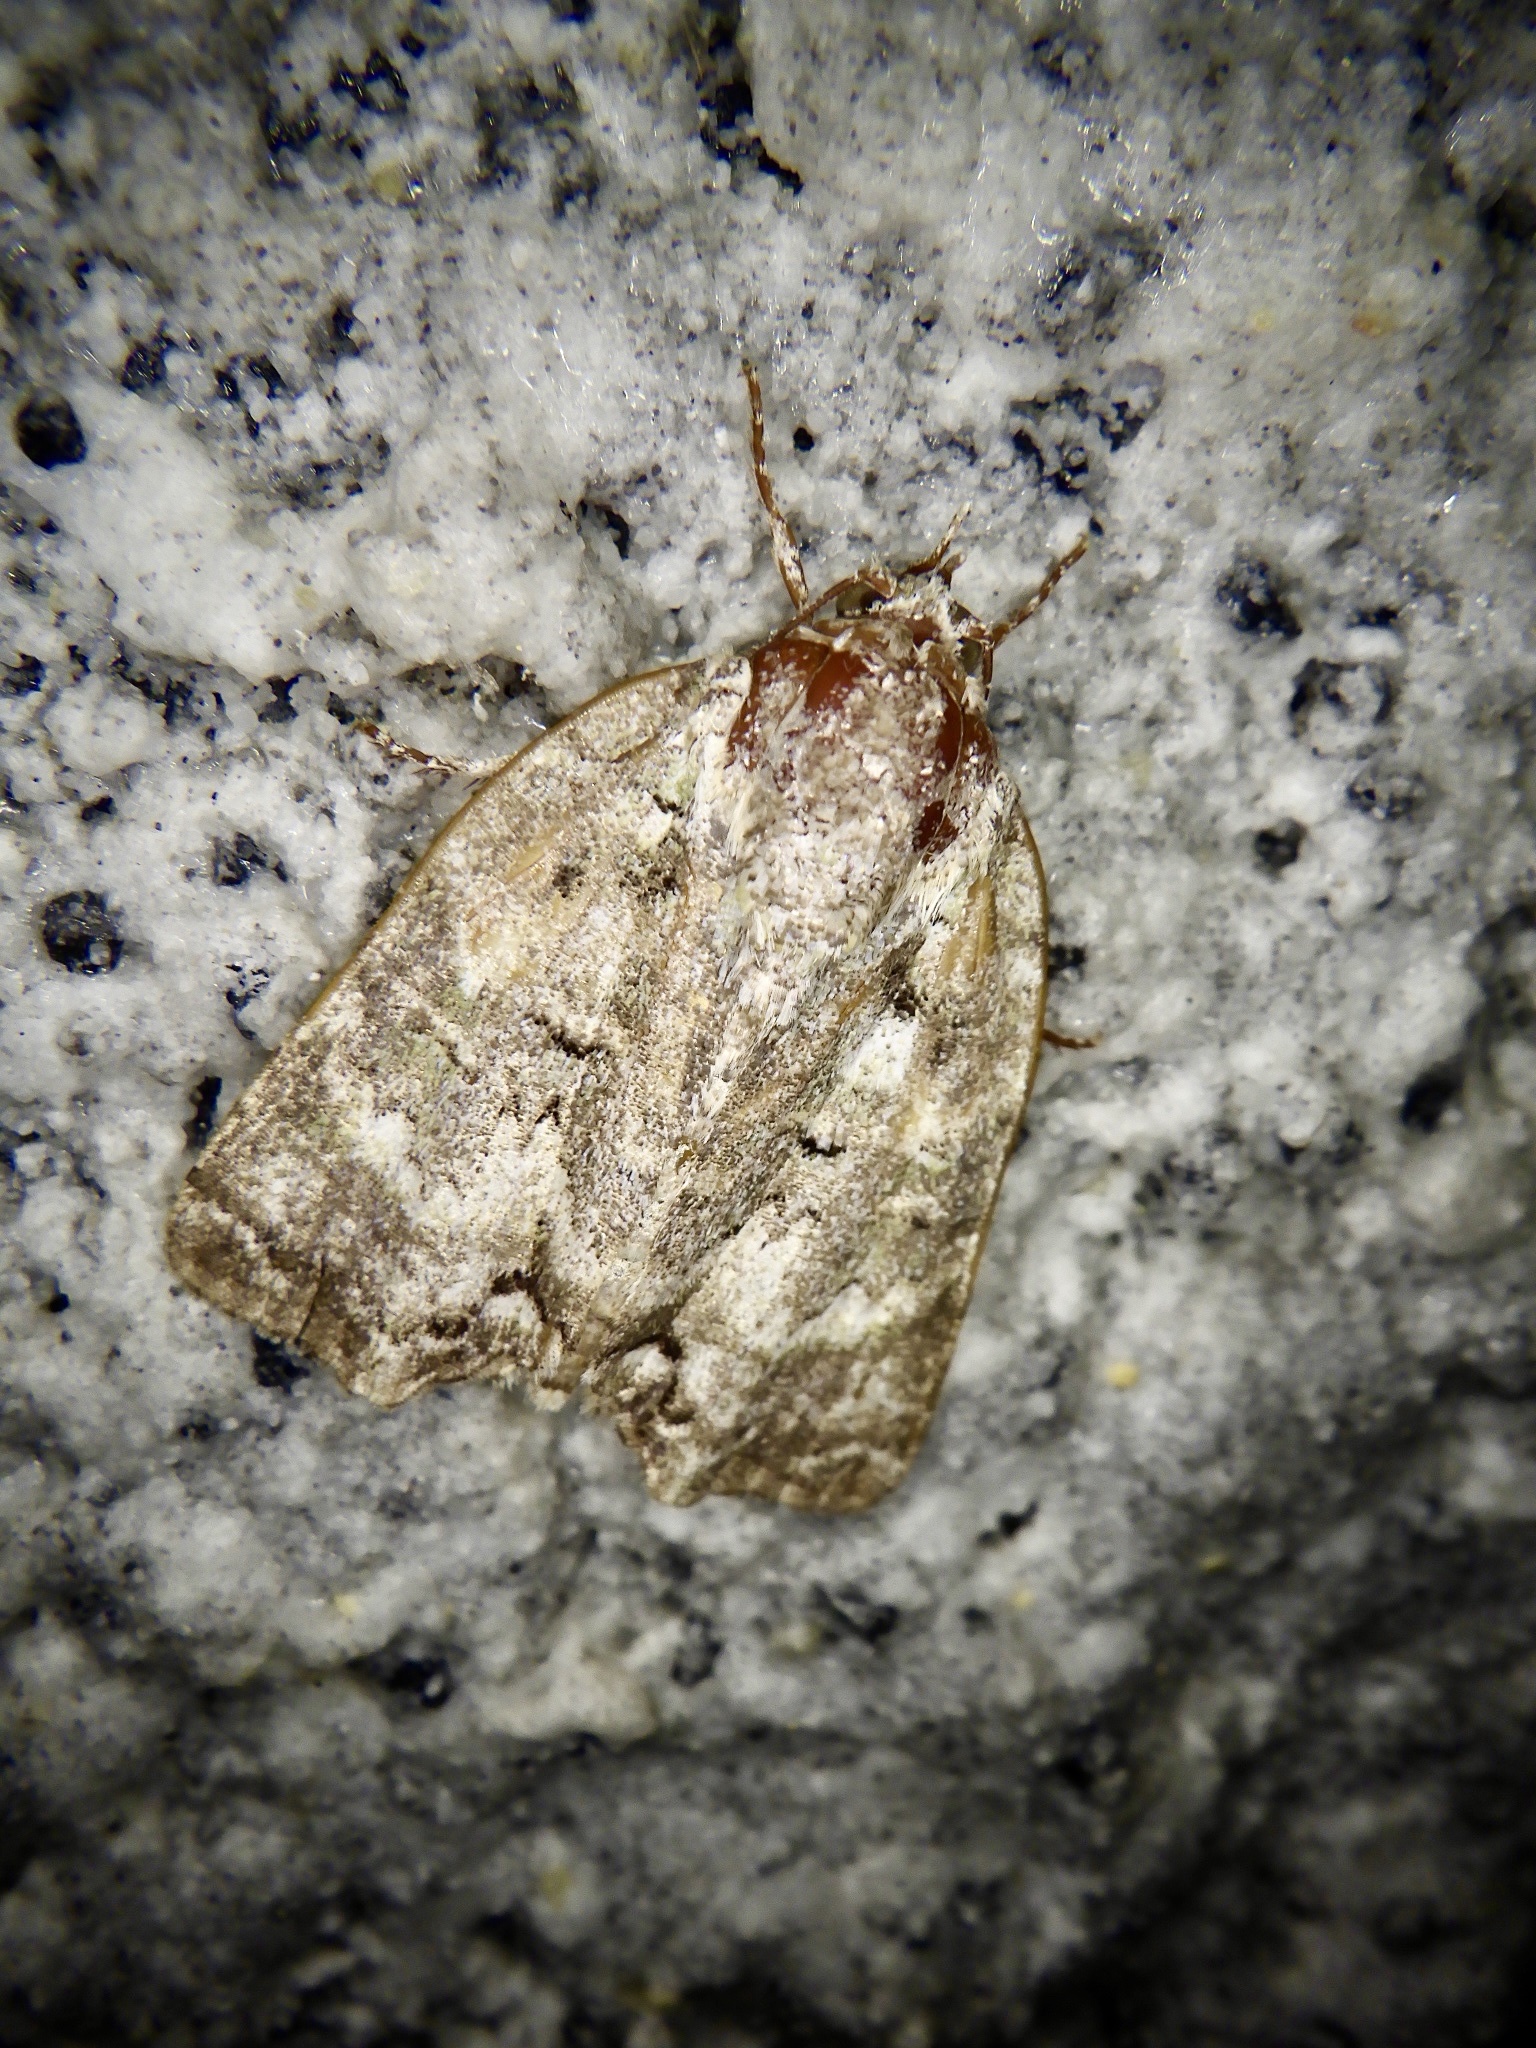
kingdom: Animalia
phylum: Arthropoda
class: Insecta
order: Lepidoptera
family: Nolidae
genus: Blenina
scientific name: Blenina senex
